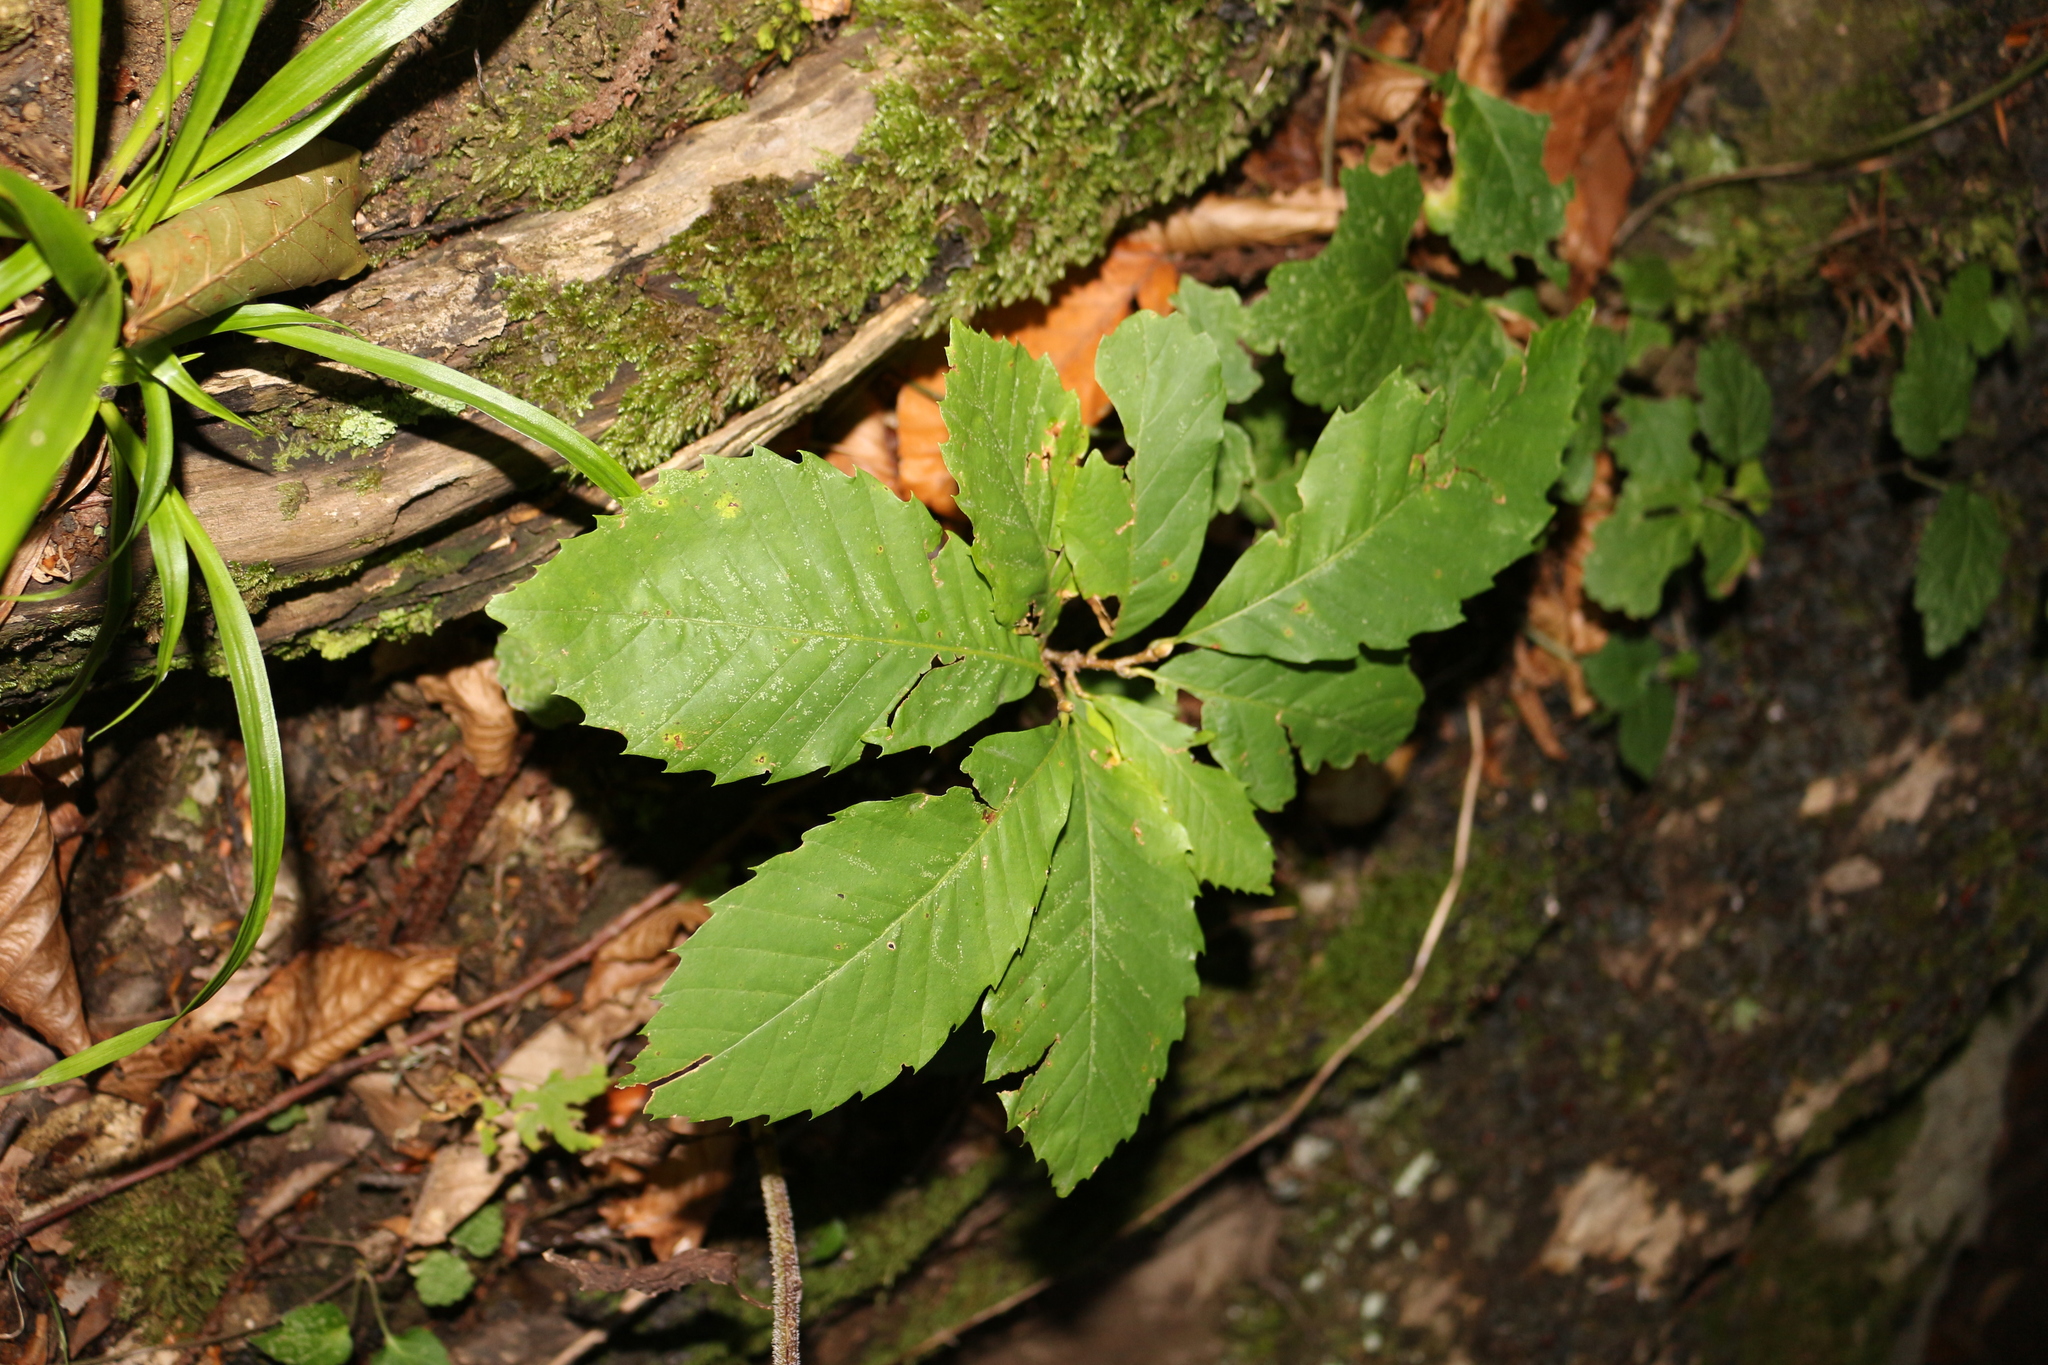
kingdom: Plantae
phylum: Tracheophyta
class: Magnoliopsida
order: Fagales
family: Fagaceae
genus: Castanea
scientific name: Castanea sativa
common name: Sweet chestnut
